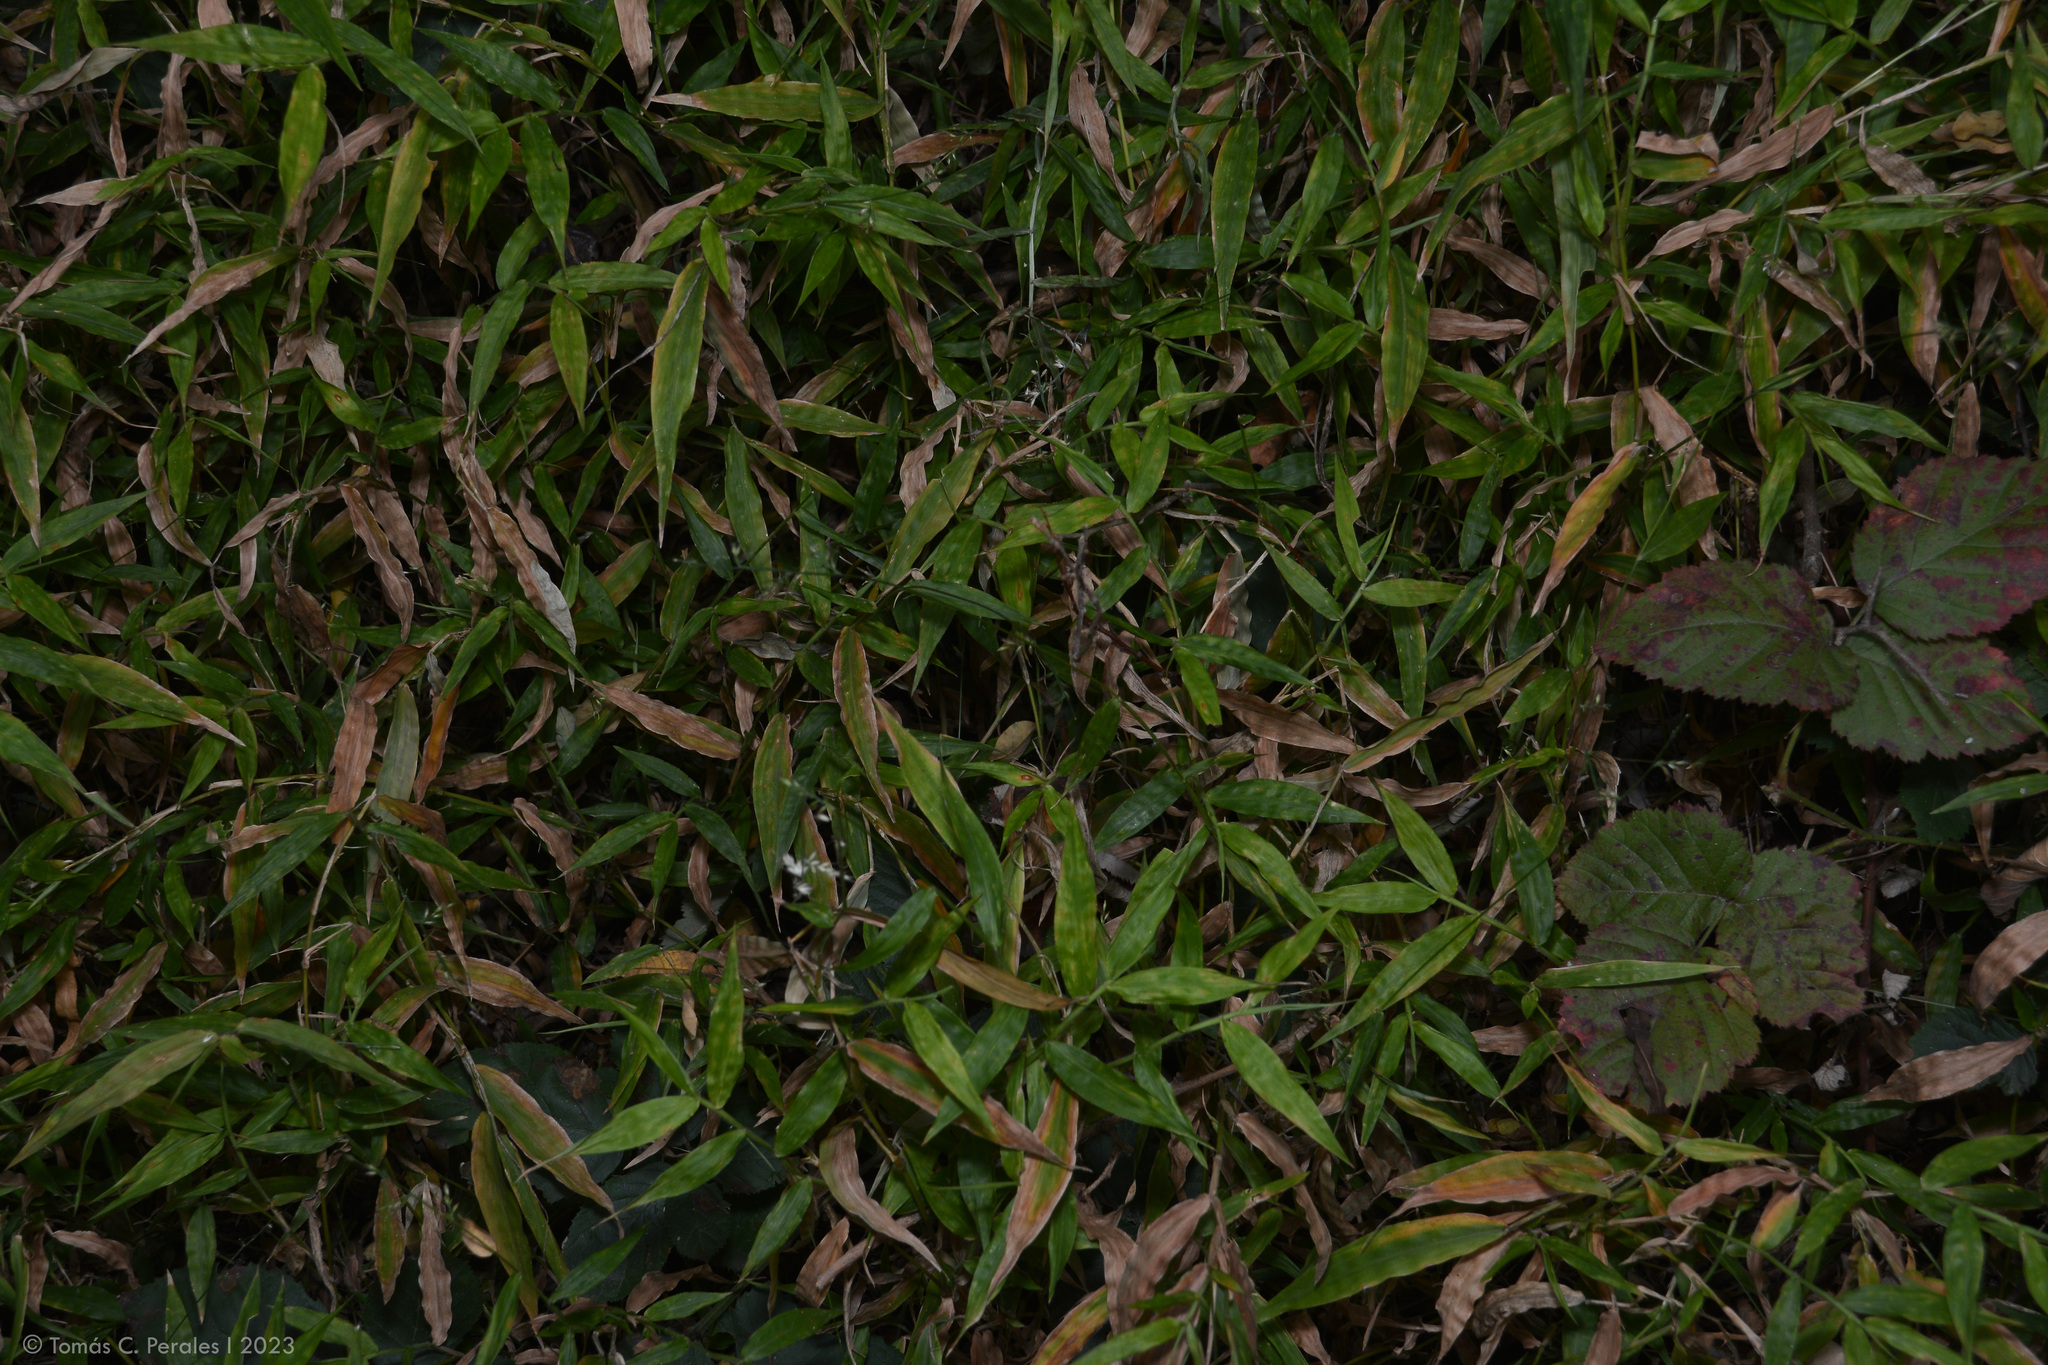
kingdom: Plantae
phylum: Tracheophyta
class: Liliopsida
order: Poales
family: Poaceae
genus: Oplismenus
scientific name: Oplismenus hirtellus
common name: Basketgrass
